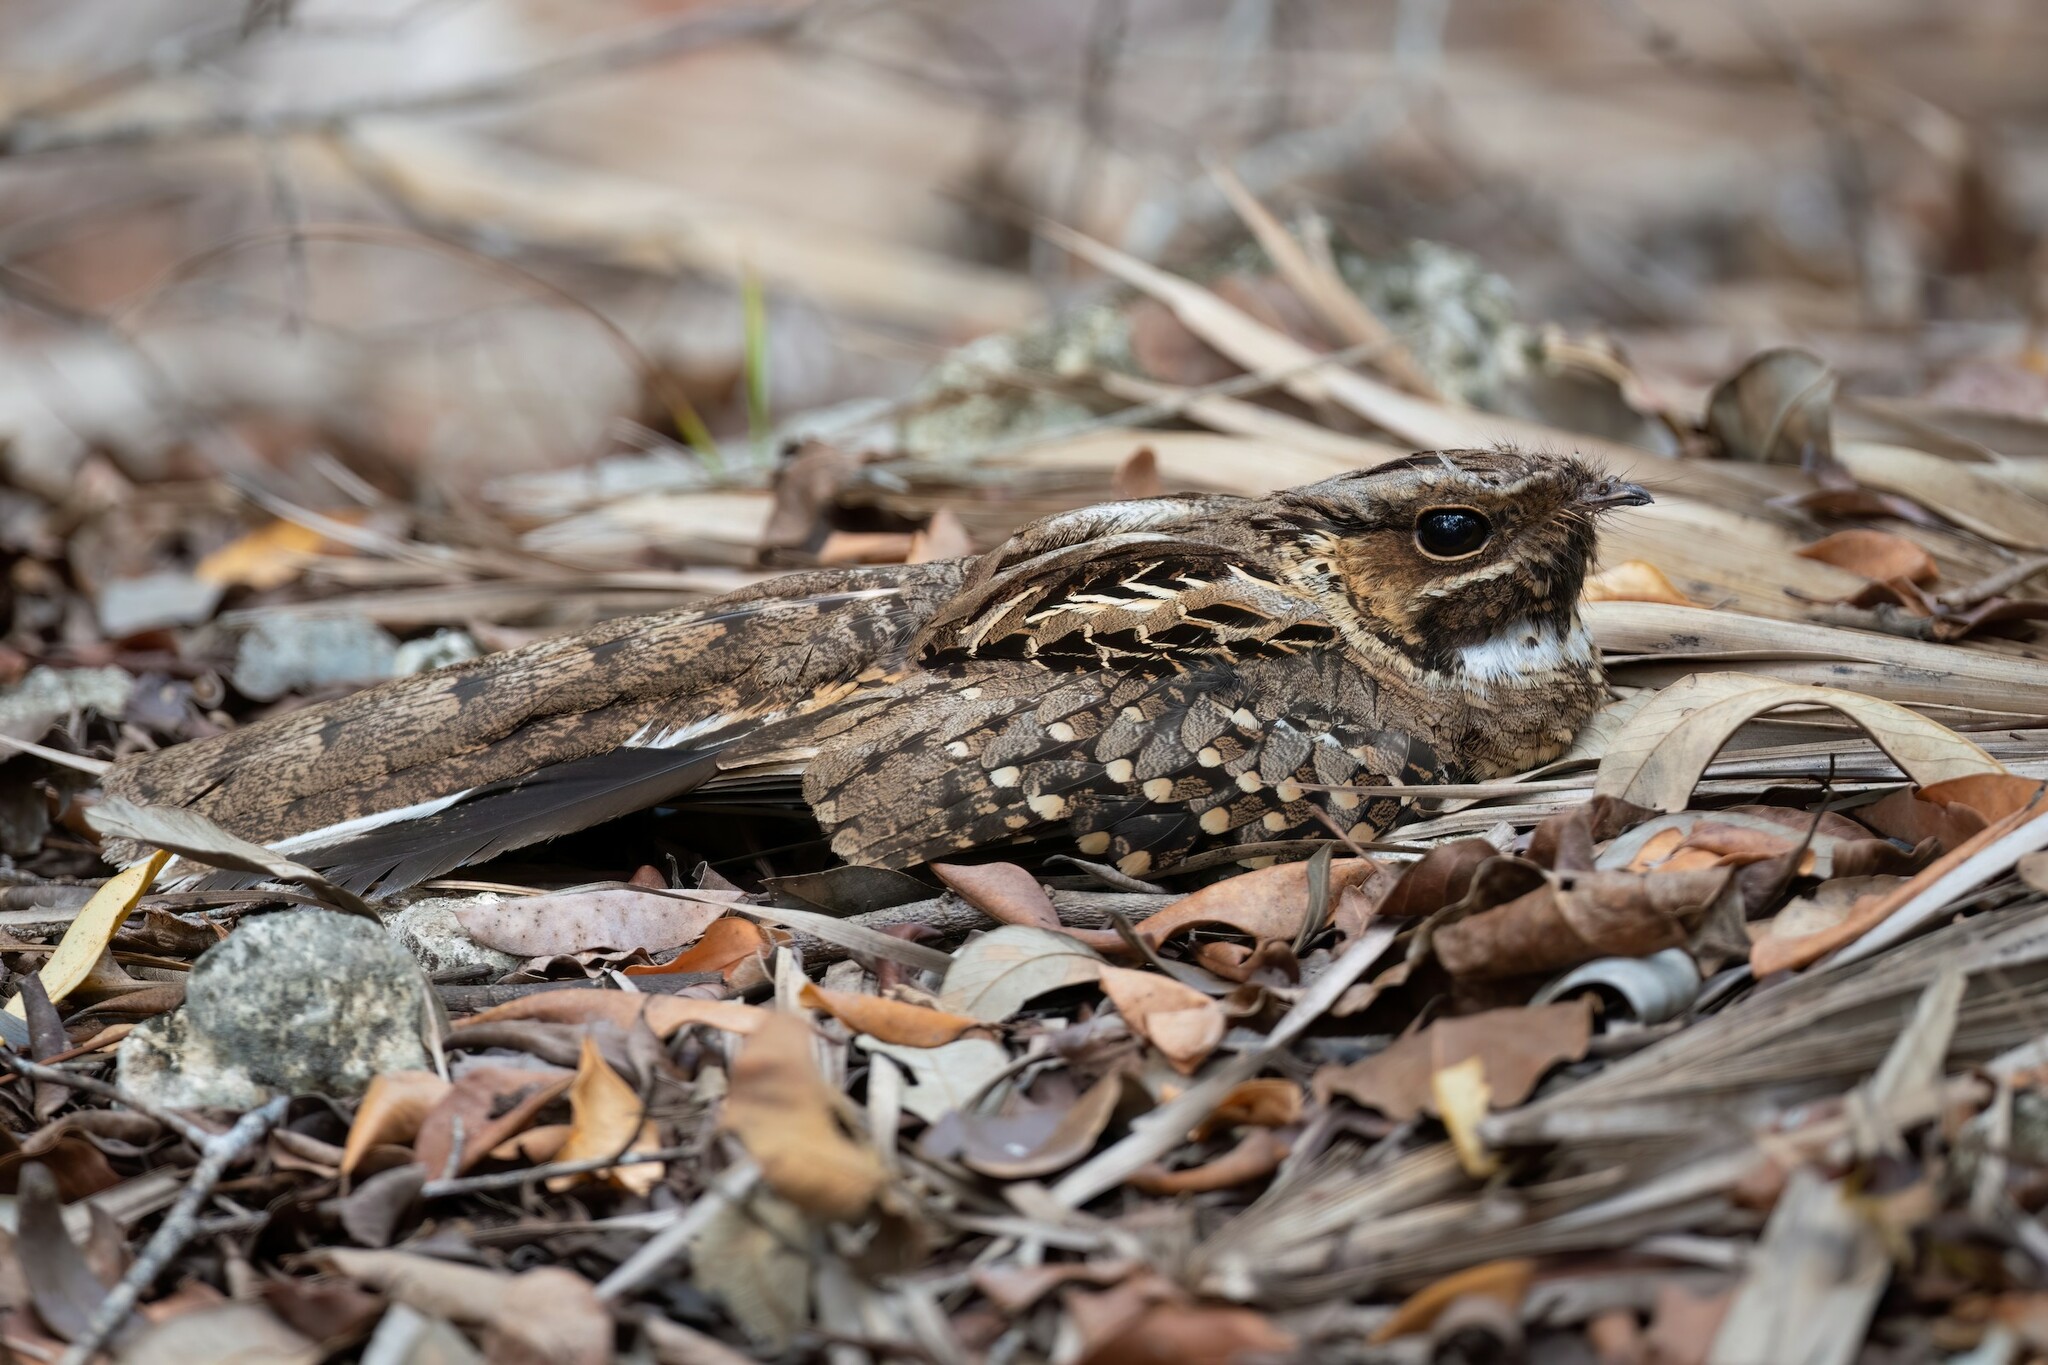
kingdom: Animalia
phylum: Chordata
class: Aves
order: Caprimulgiformes
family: Caprimulgidae
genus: Nyctidromus
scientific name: Nyctidromus albicollis
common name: Pauraque
